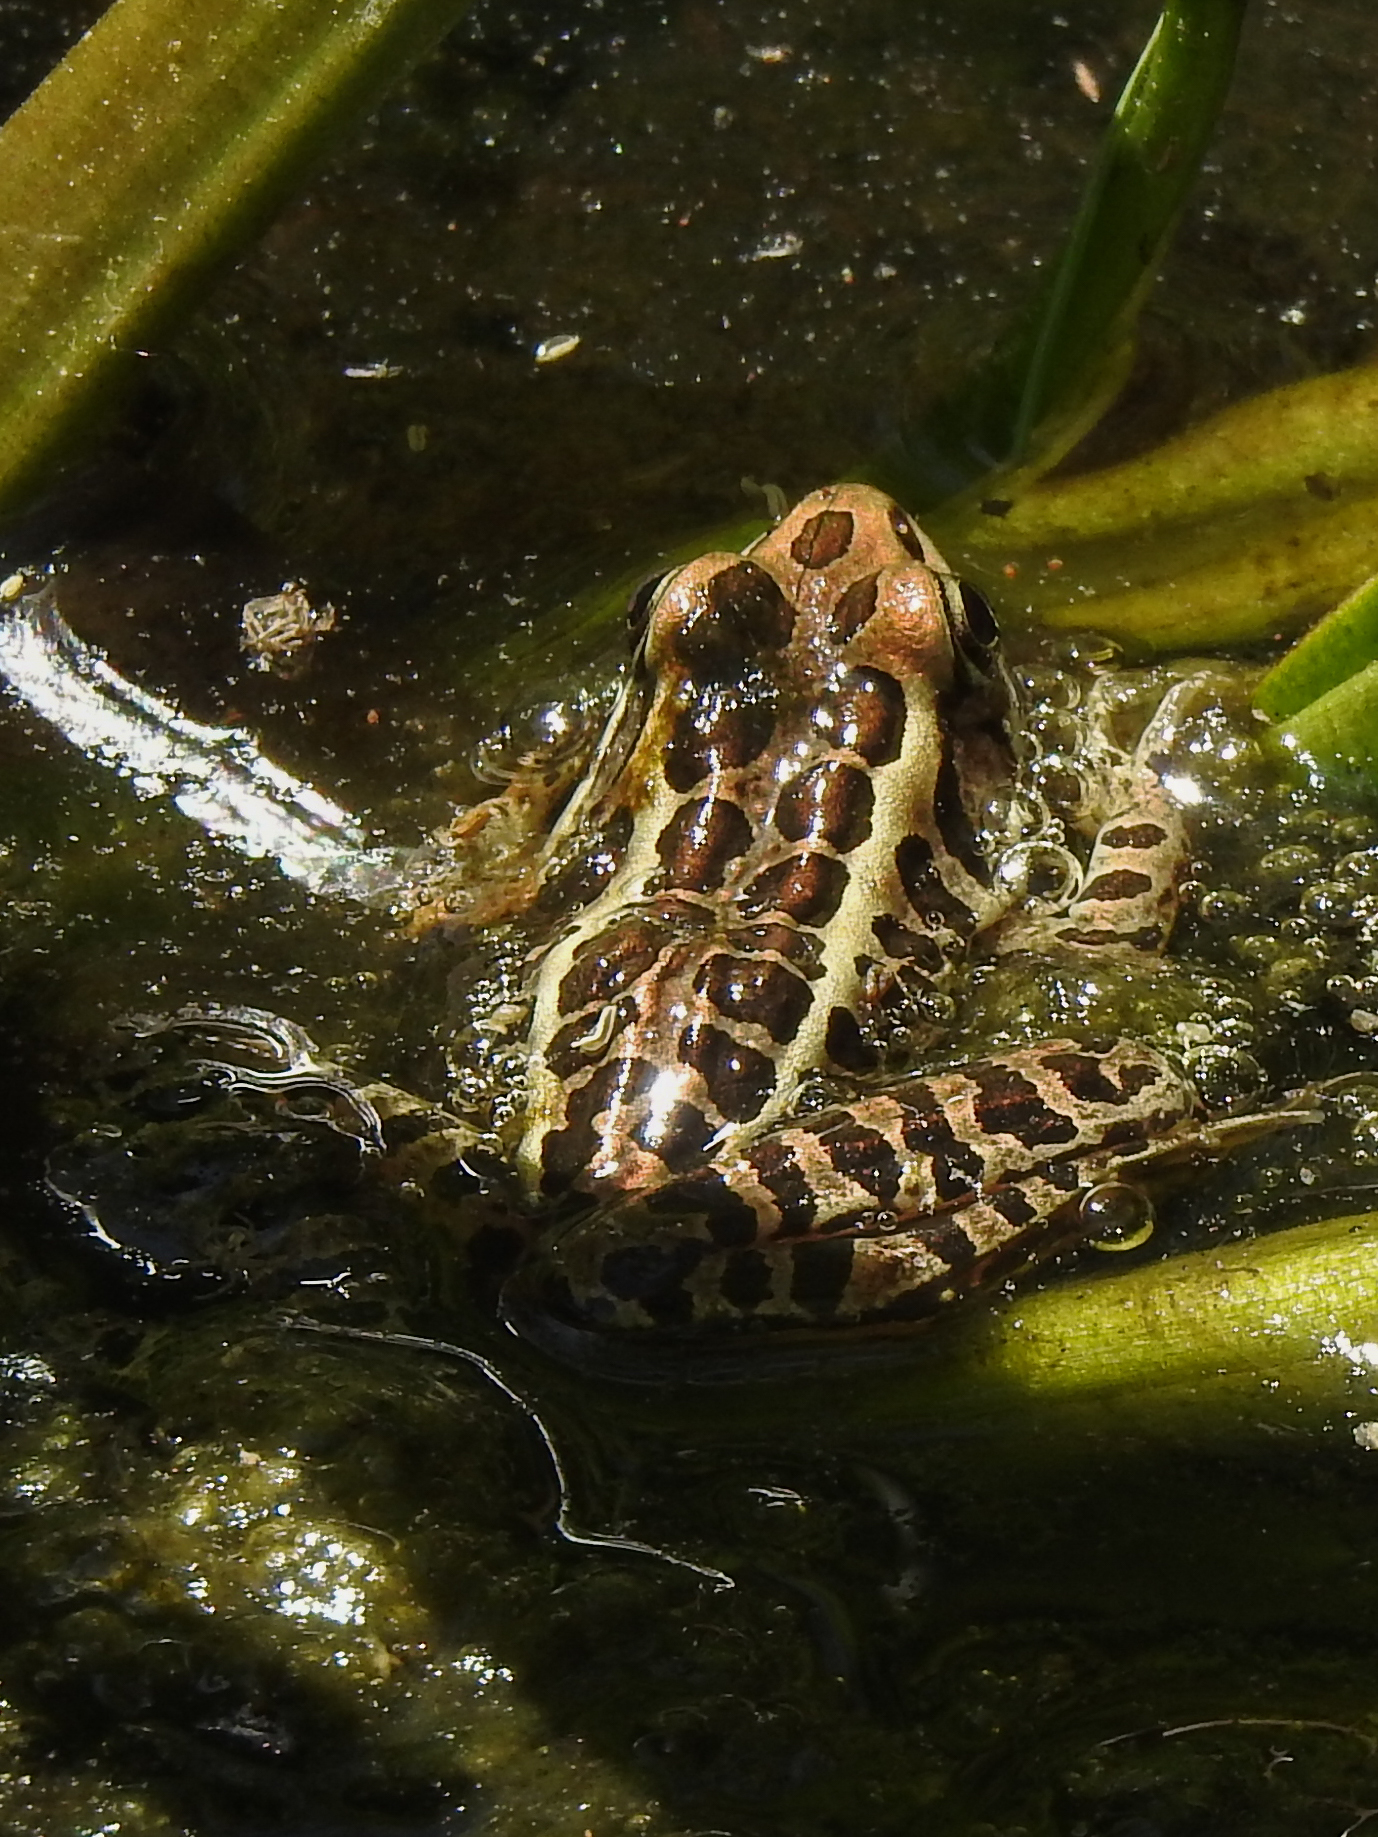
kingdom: Animalia
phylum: Chordata
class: Amphibia
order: Anura
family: Ranidae
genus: Lithobates
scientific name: Lithobates palustris
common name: Pickerel frog
